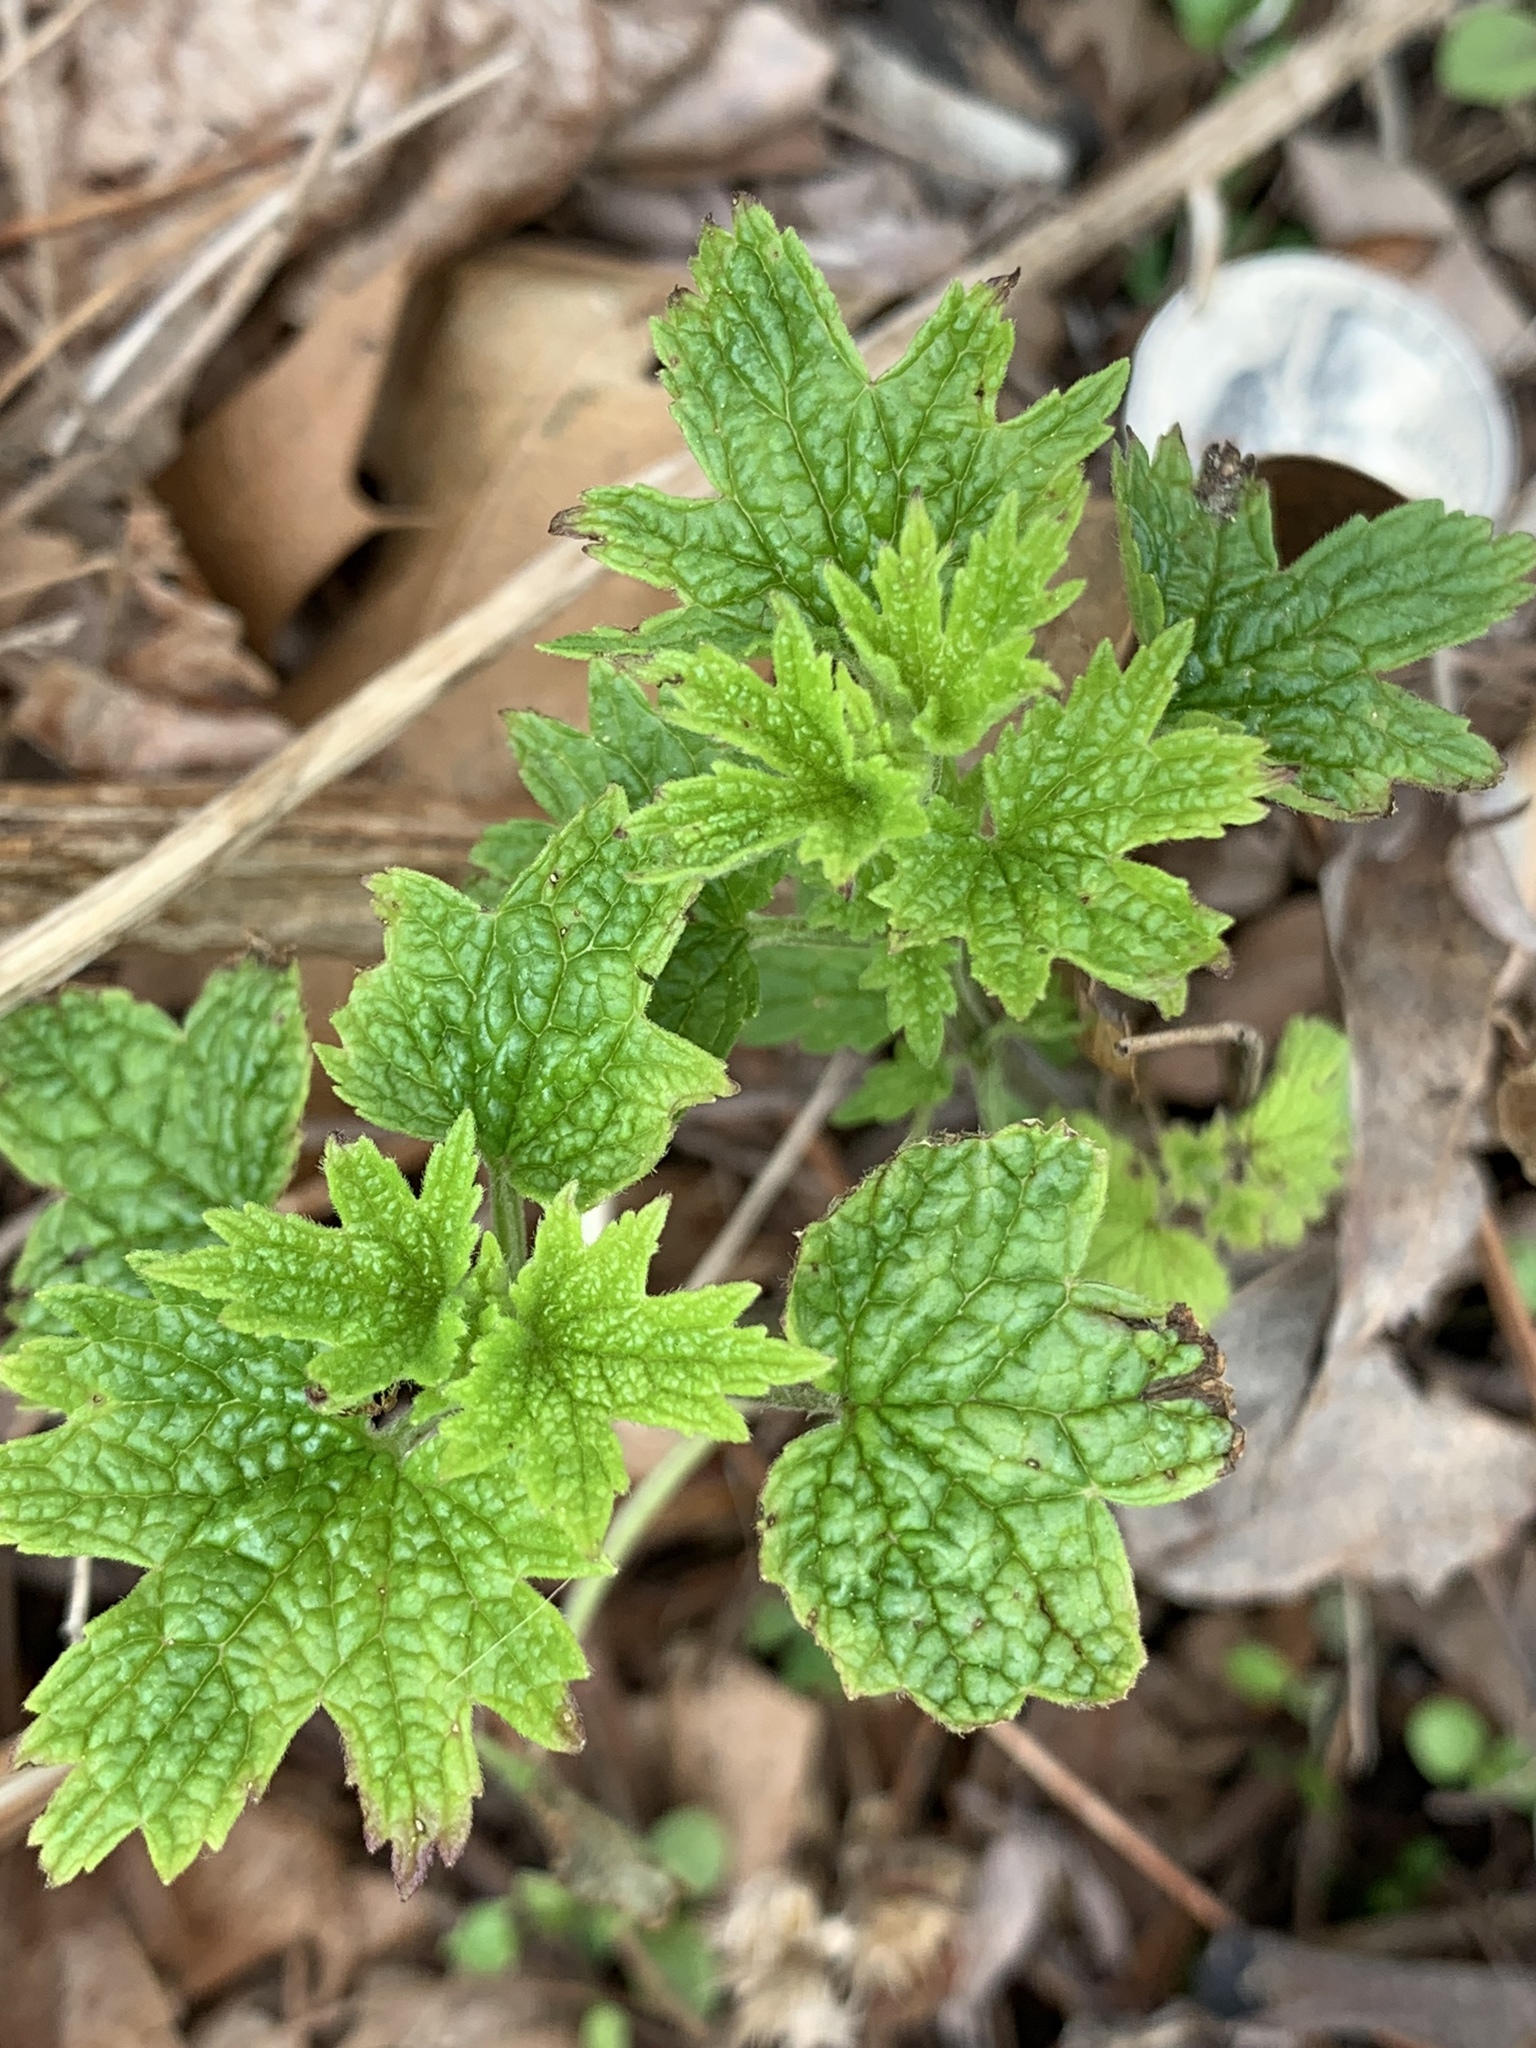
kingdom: Plantae
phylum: Tracheophyta
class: Magnoliopsida
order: Lamiales
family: Lamiaceae
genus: Leonurus
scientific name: Leonurus cardiaca
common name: Motherwort
